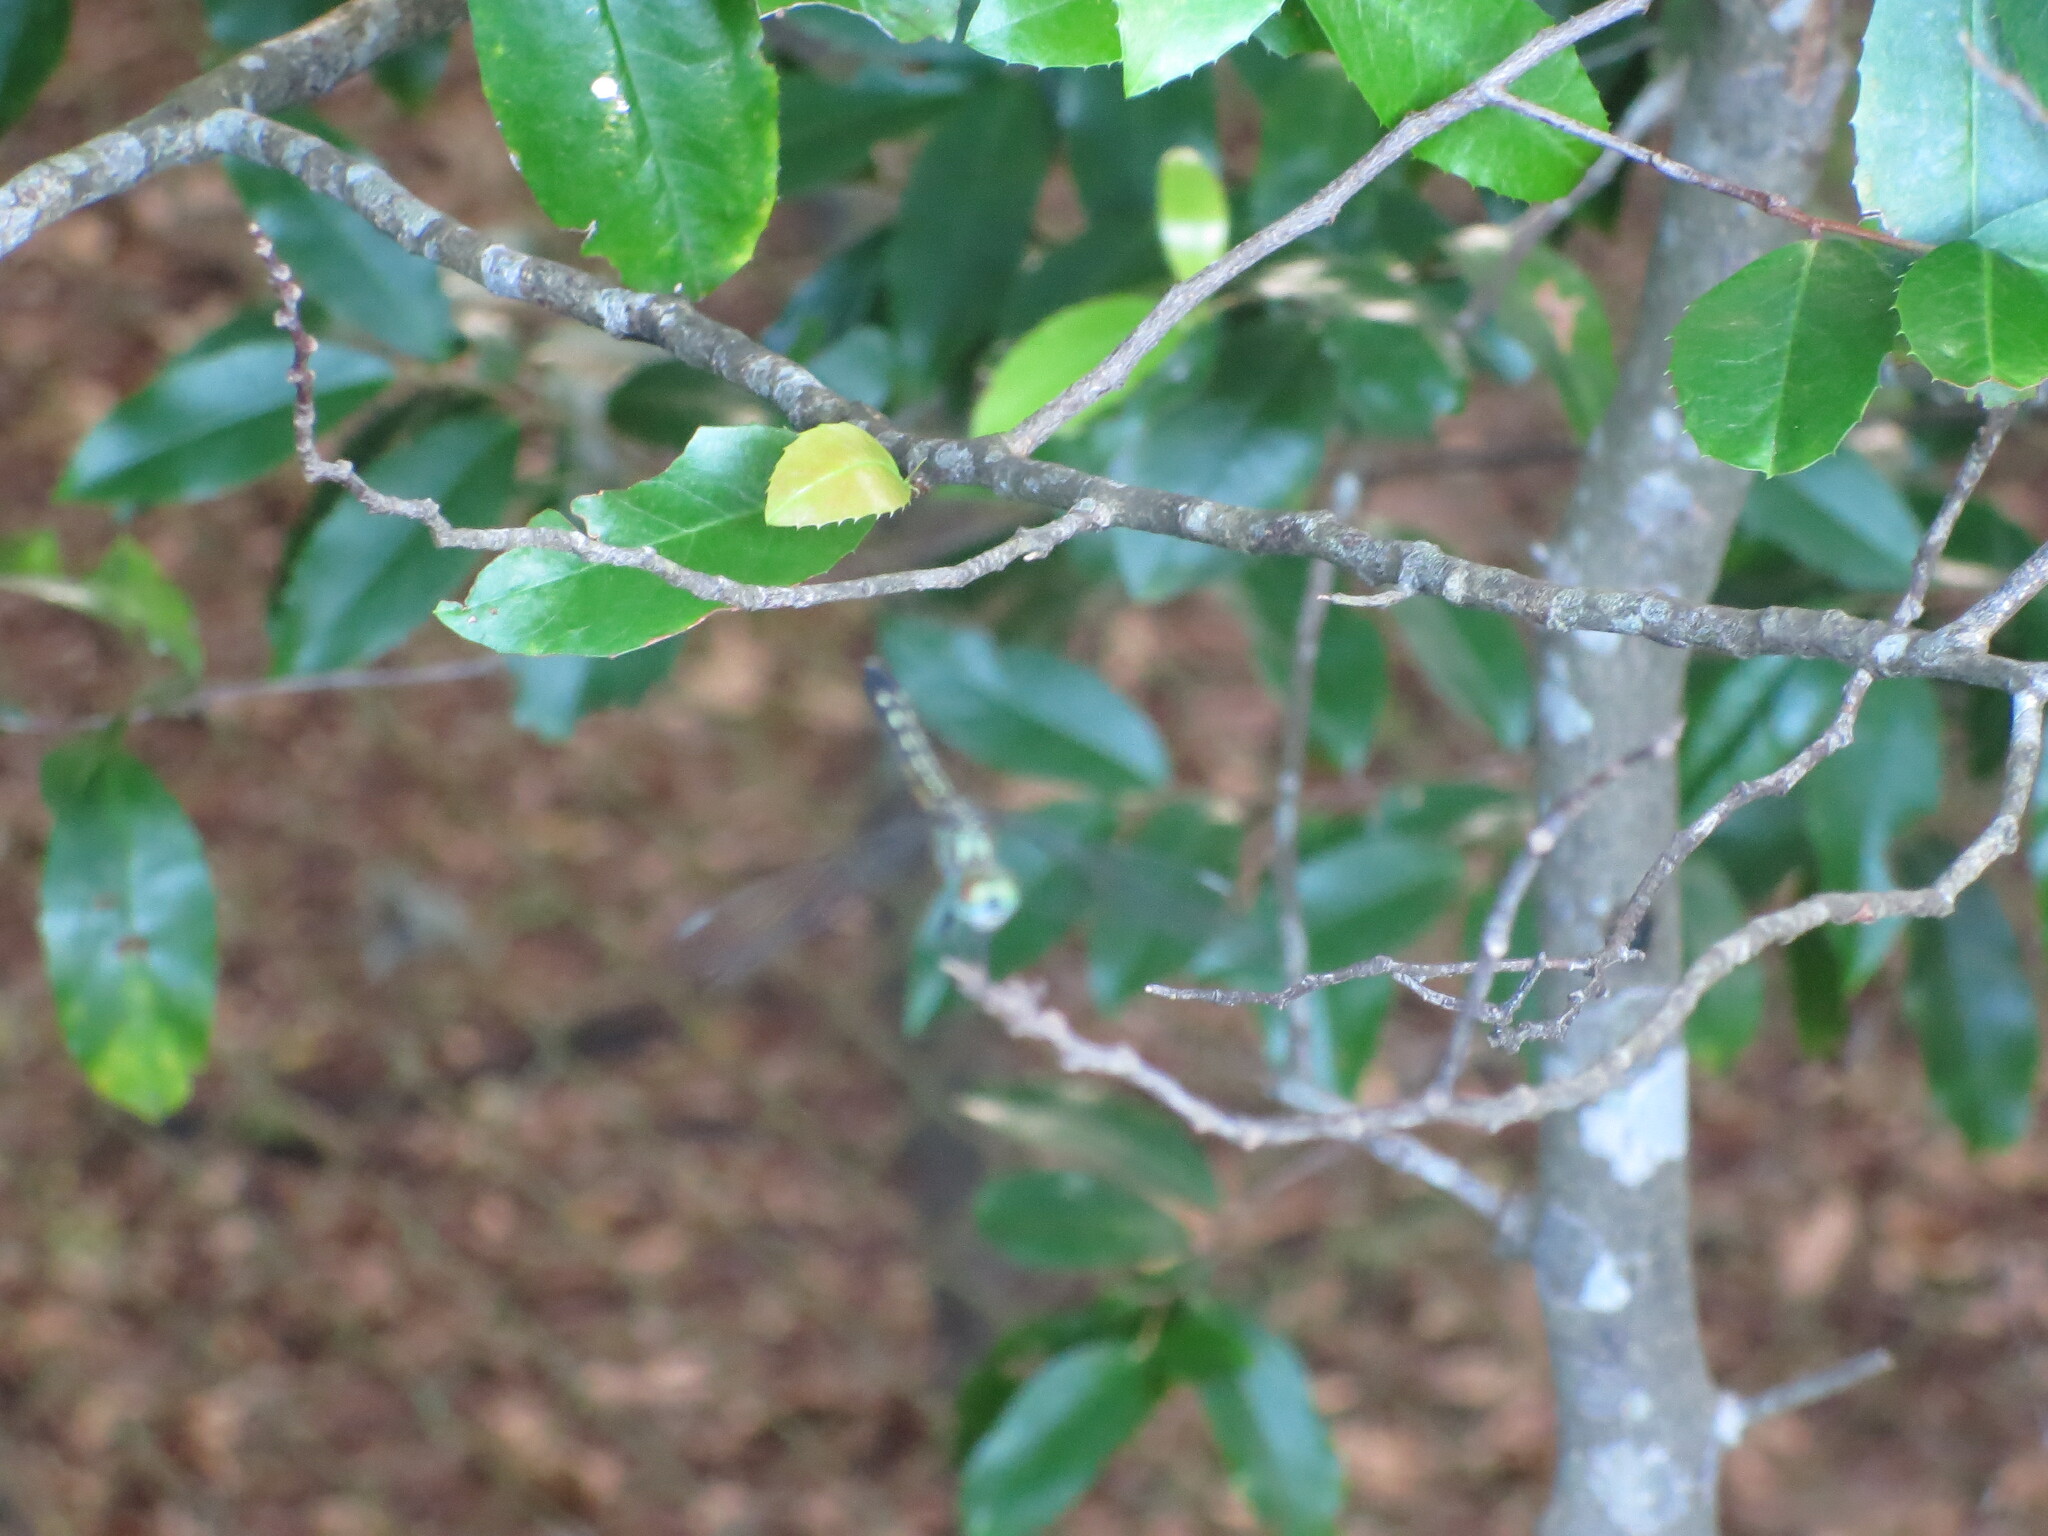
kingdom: Animalia
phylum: Arthropoda
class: Insecta
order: Odonata
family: Libellulidae
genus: Pachydiplax
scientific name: Pachydiplax longipennis
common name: Blue dasher
